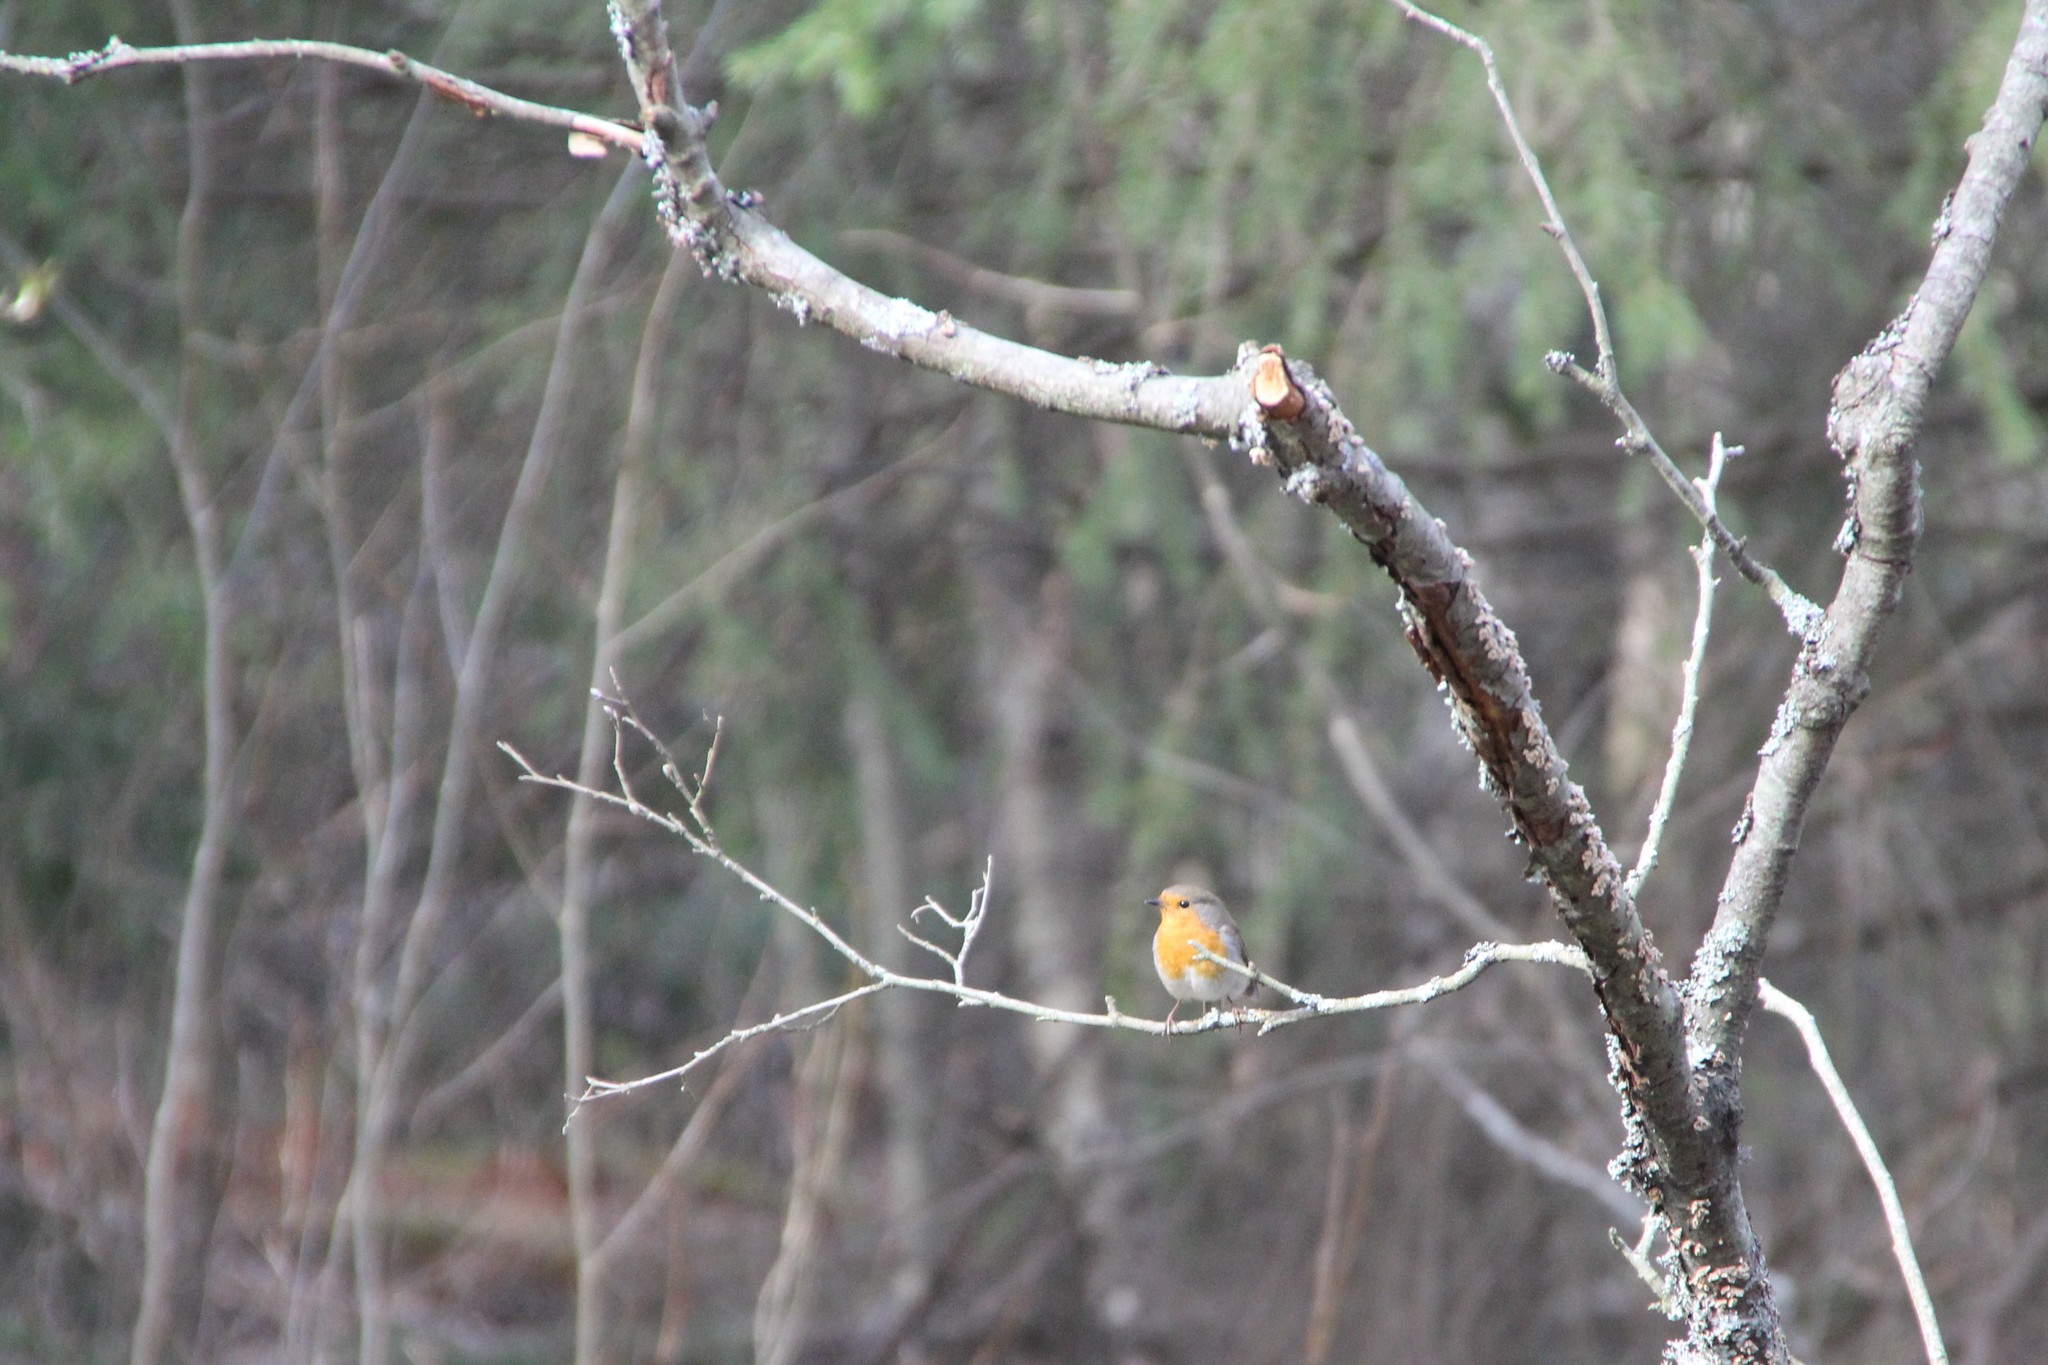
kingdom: Animalia
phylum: Chordata
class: Aves
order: Passeriformes
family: Muscicapidae
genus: Erithacus
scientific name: Erithacus rubecula
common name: European robin
